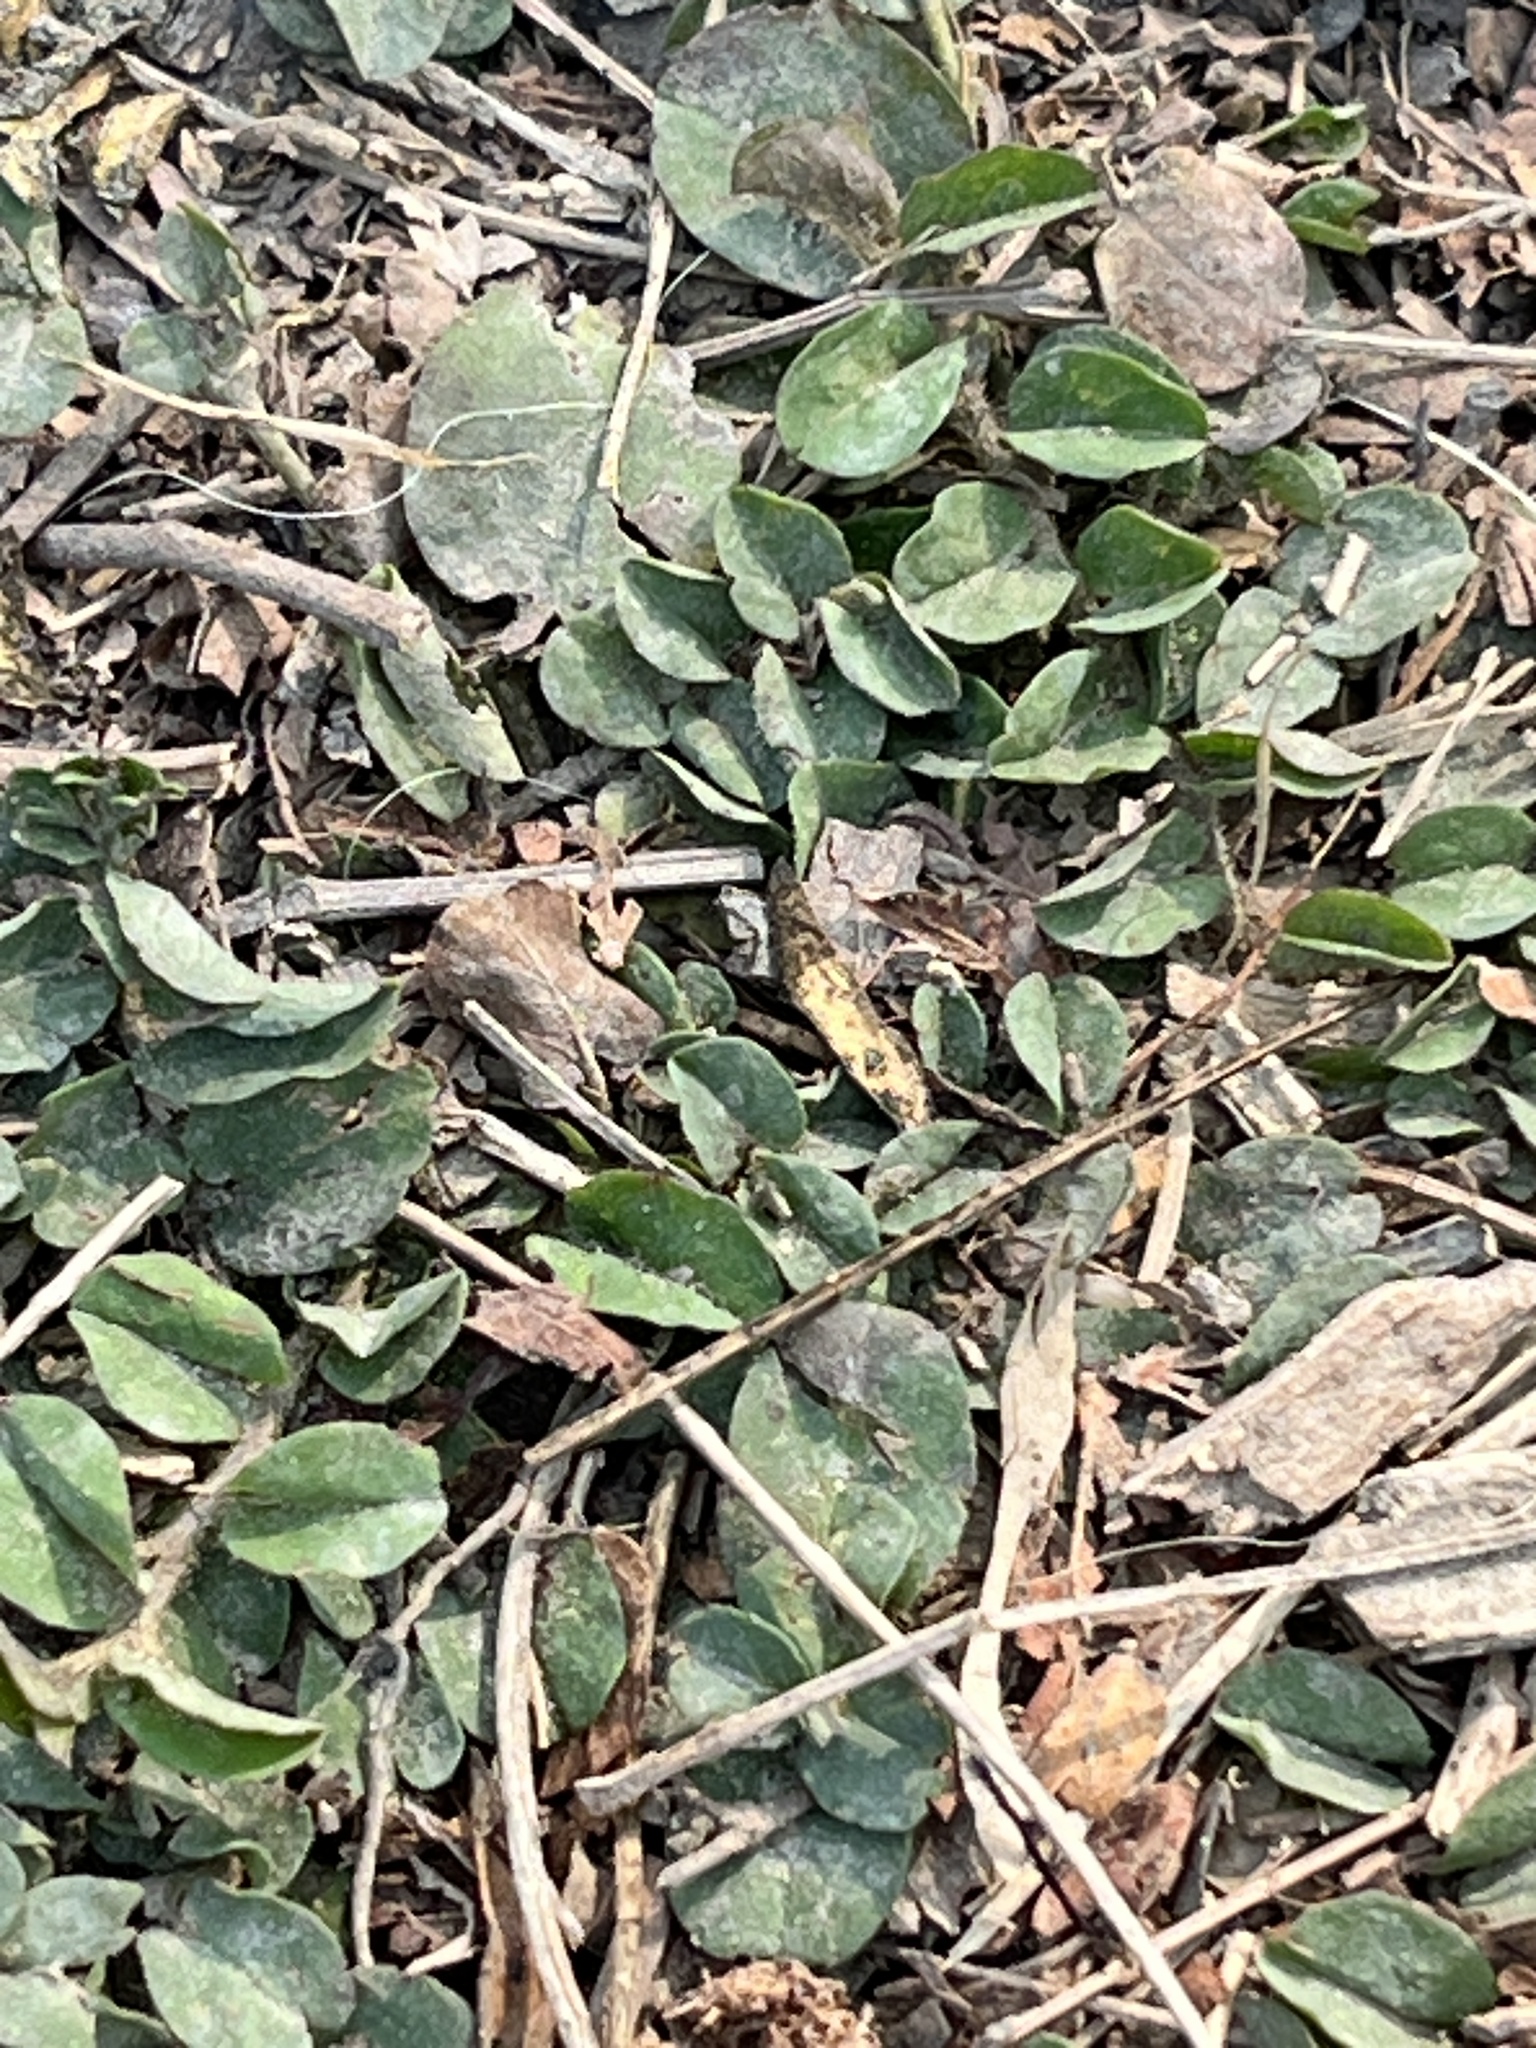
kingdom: Plantae
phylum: Tracheophyta
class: Magnoliopsida
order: Solanales
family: Convolvulaceae
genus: Evolvulus
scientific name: Evolvulus nummularius
